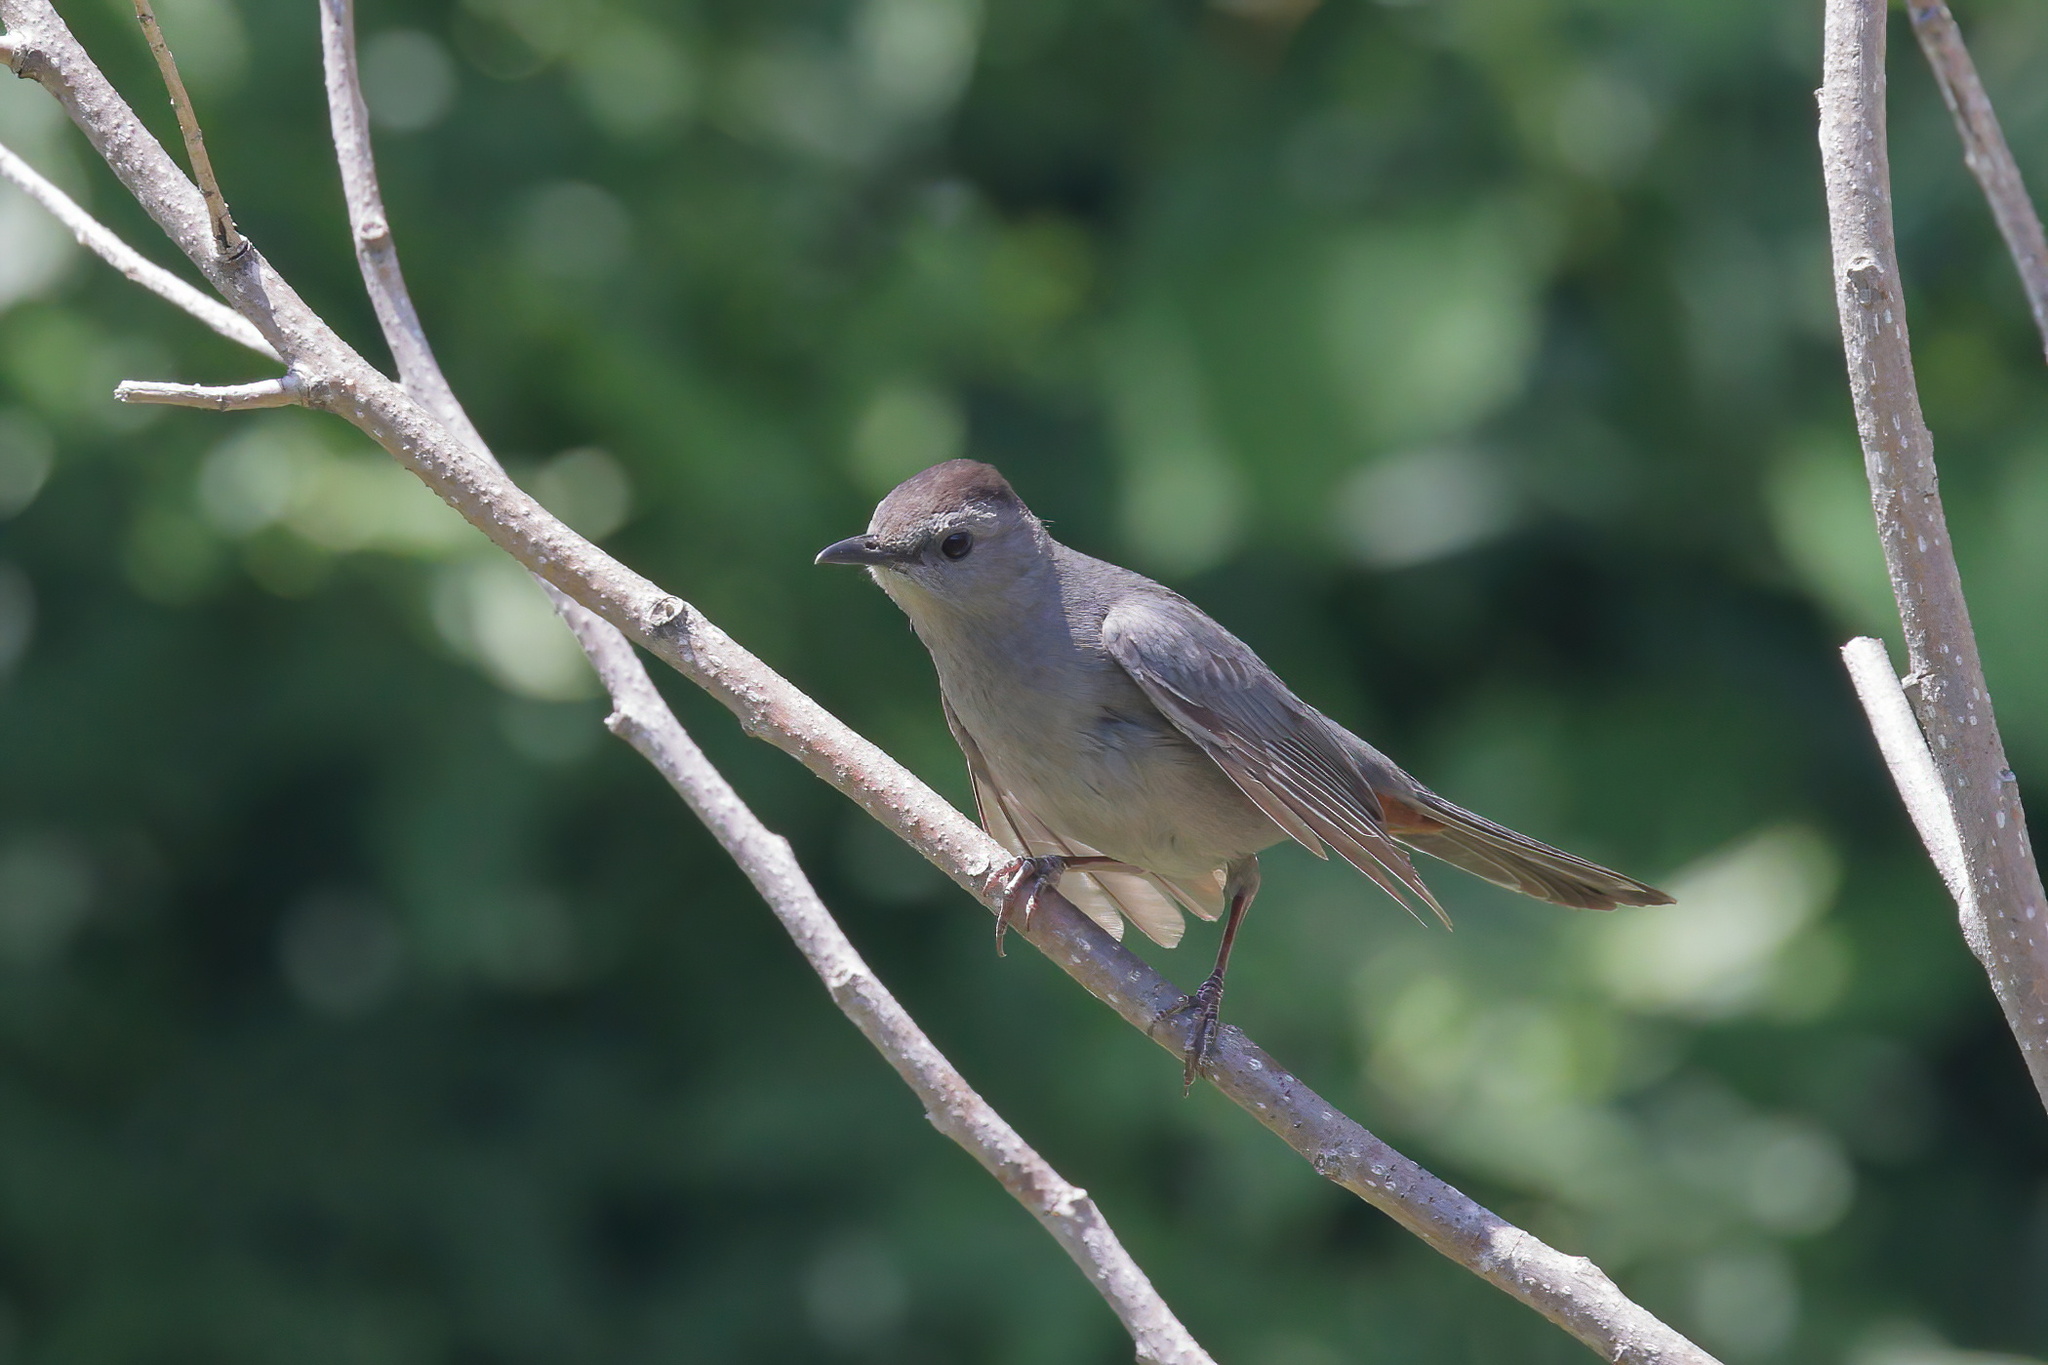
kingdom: Animalia
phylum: Chordata
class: Aves
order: Passeriformes
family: Mimidae
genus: Dumetella
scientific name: Dumetella carolinensis
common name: Gray catbird
